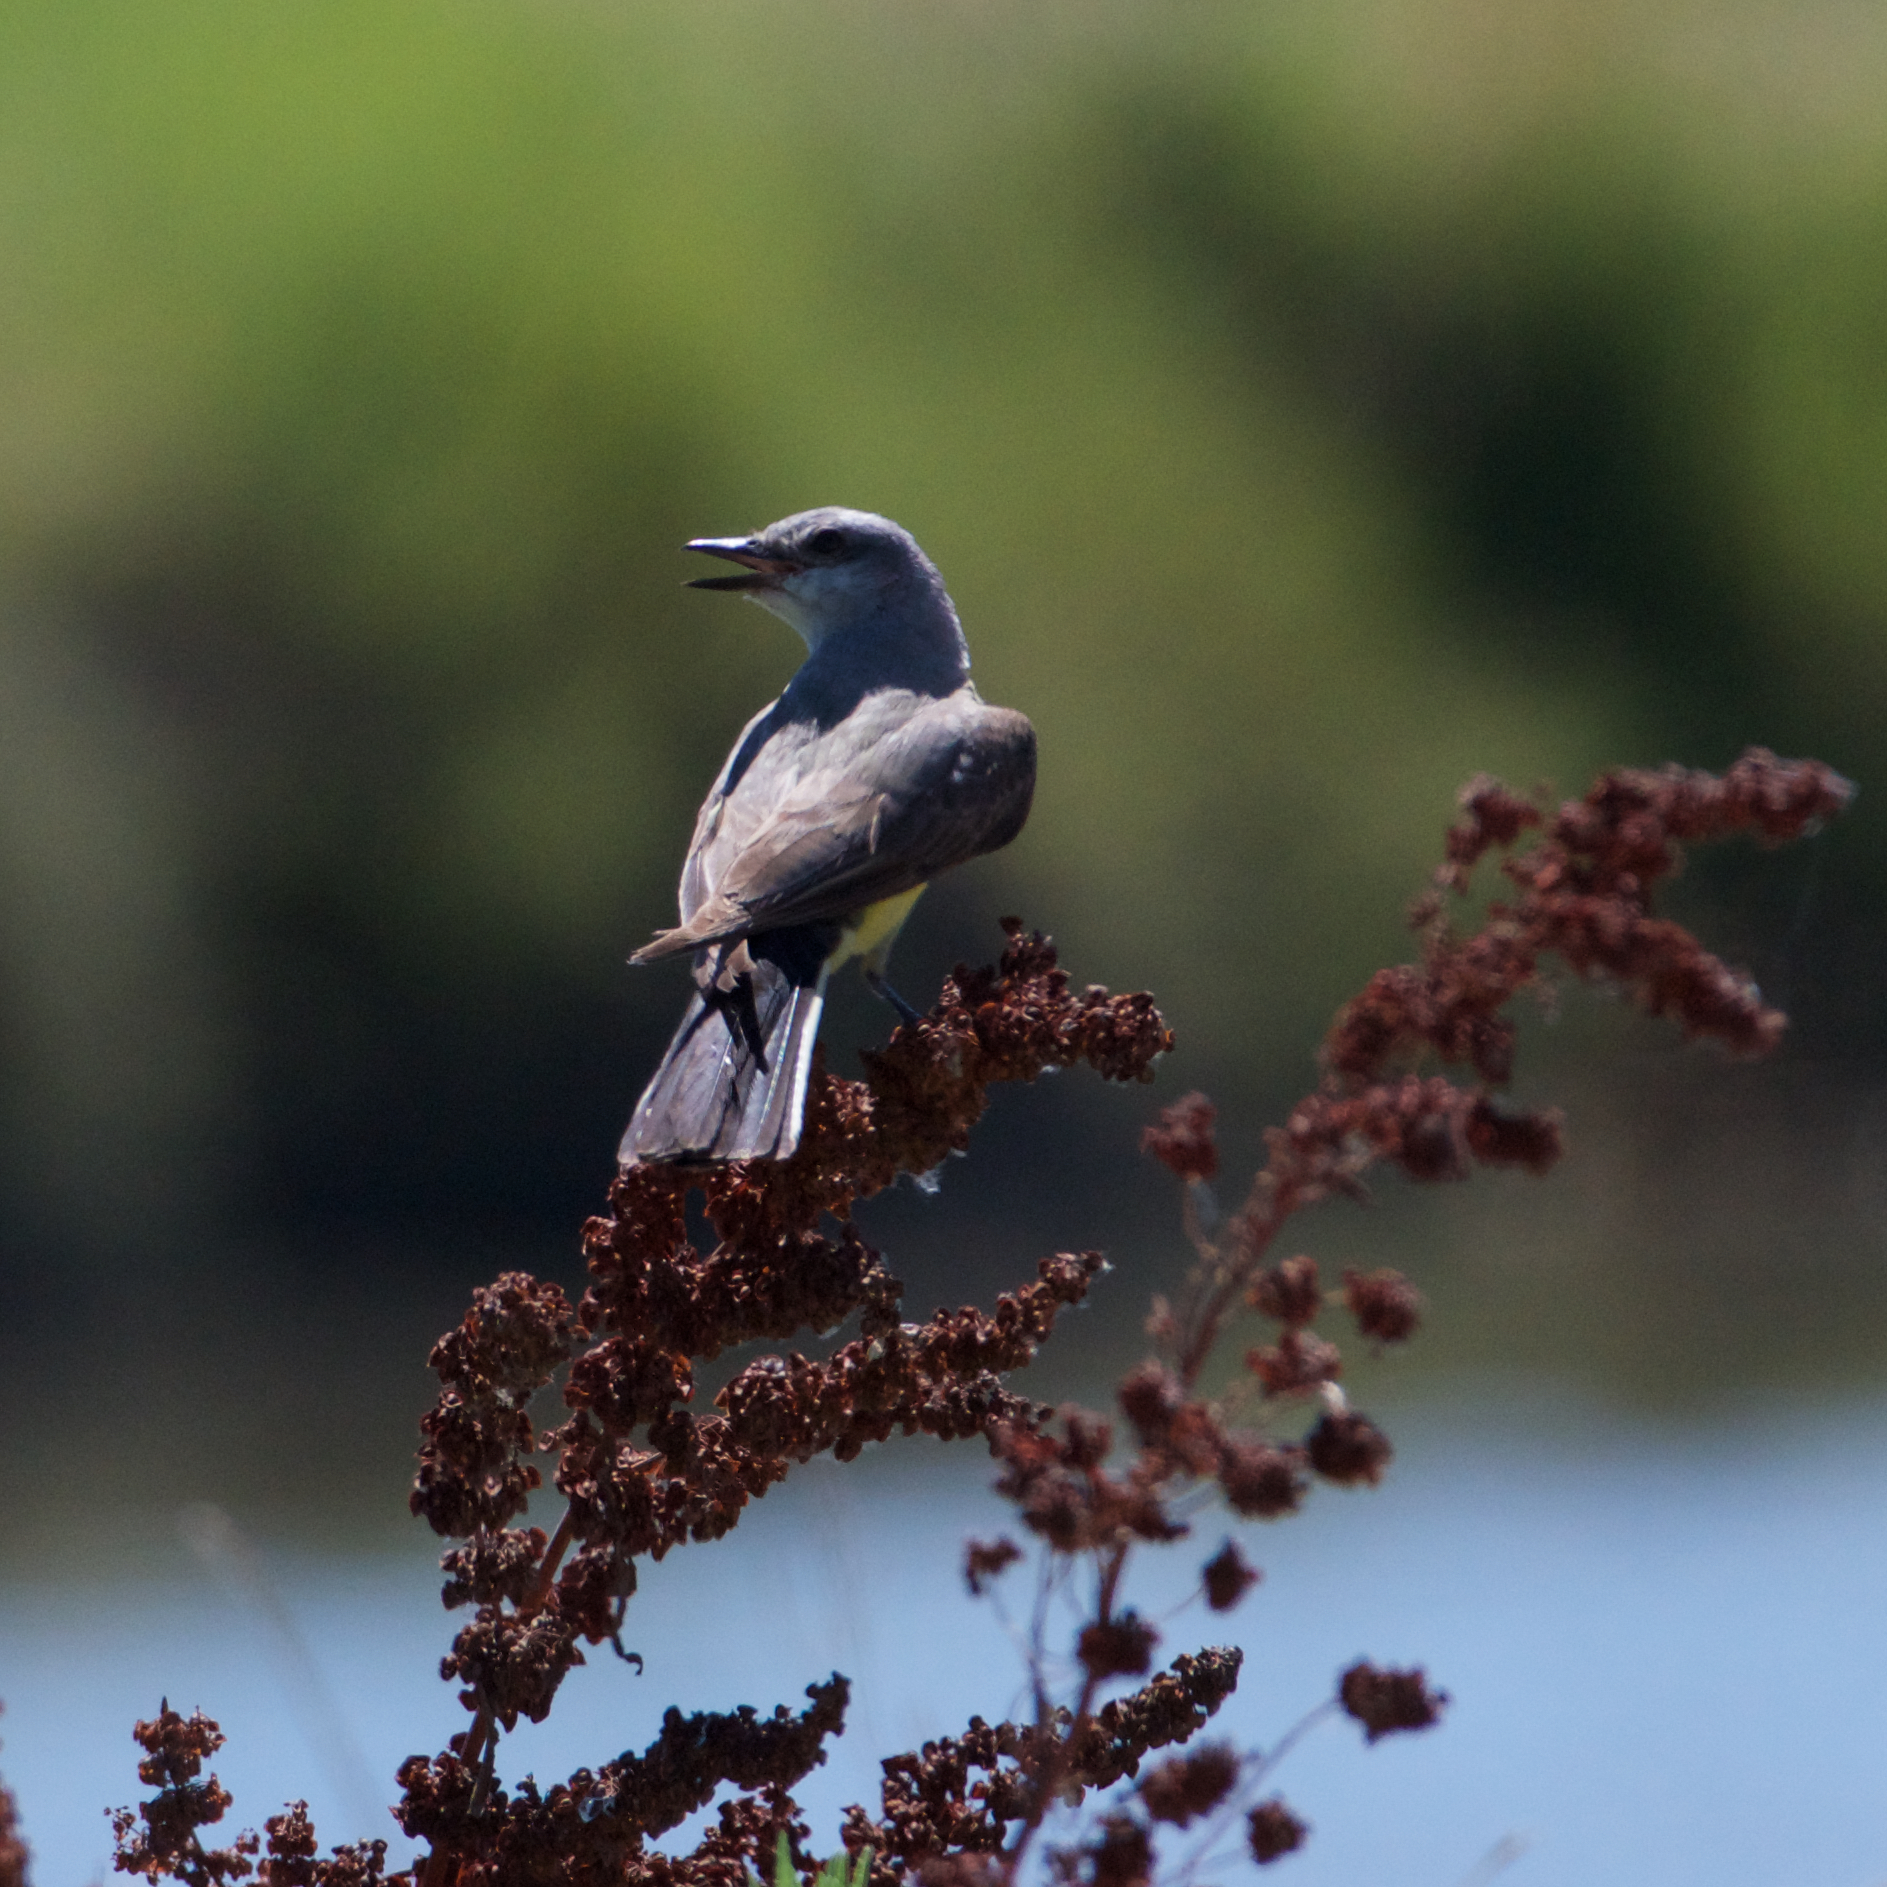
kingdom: Animalia
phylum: Chordata
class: Aves
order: Passeriformes
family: Tyrannidae
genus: Tyrannus
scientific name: Tyrannus verticalis
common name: Western kingbird
